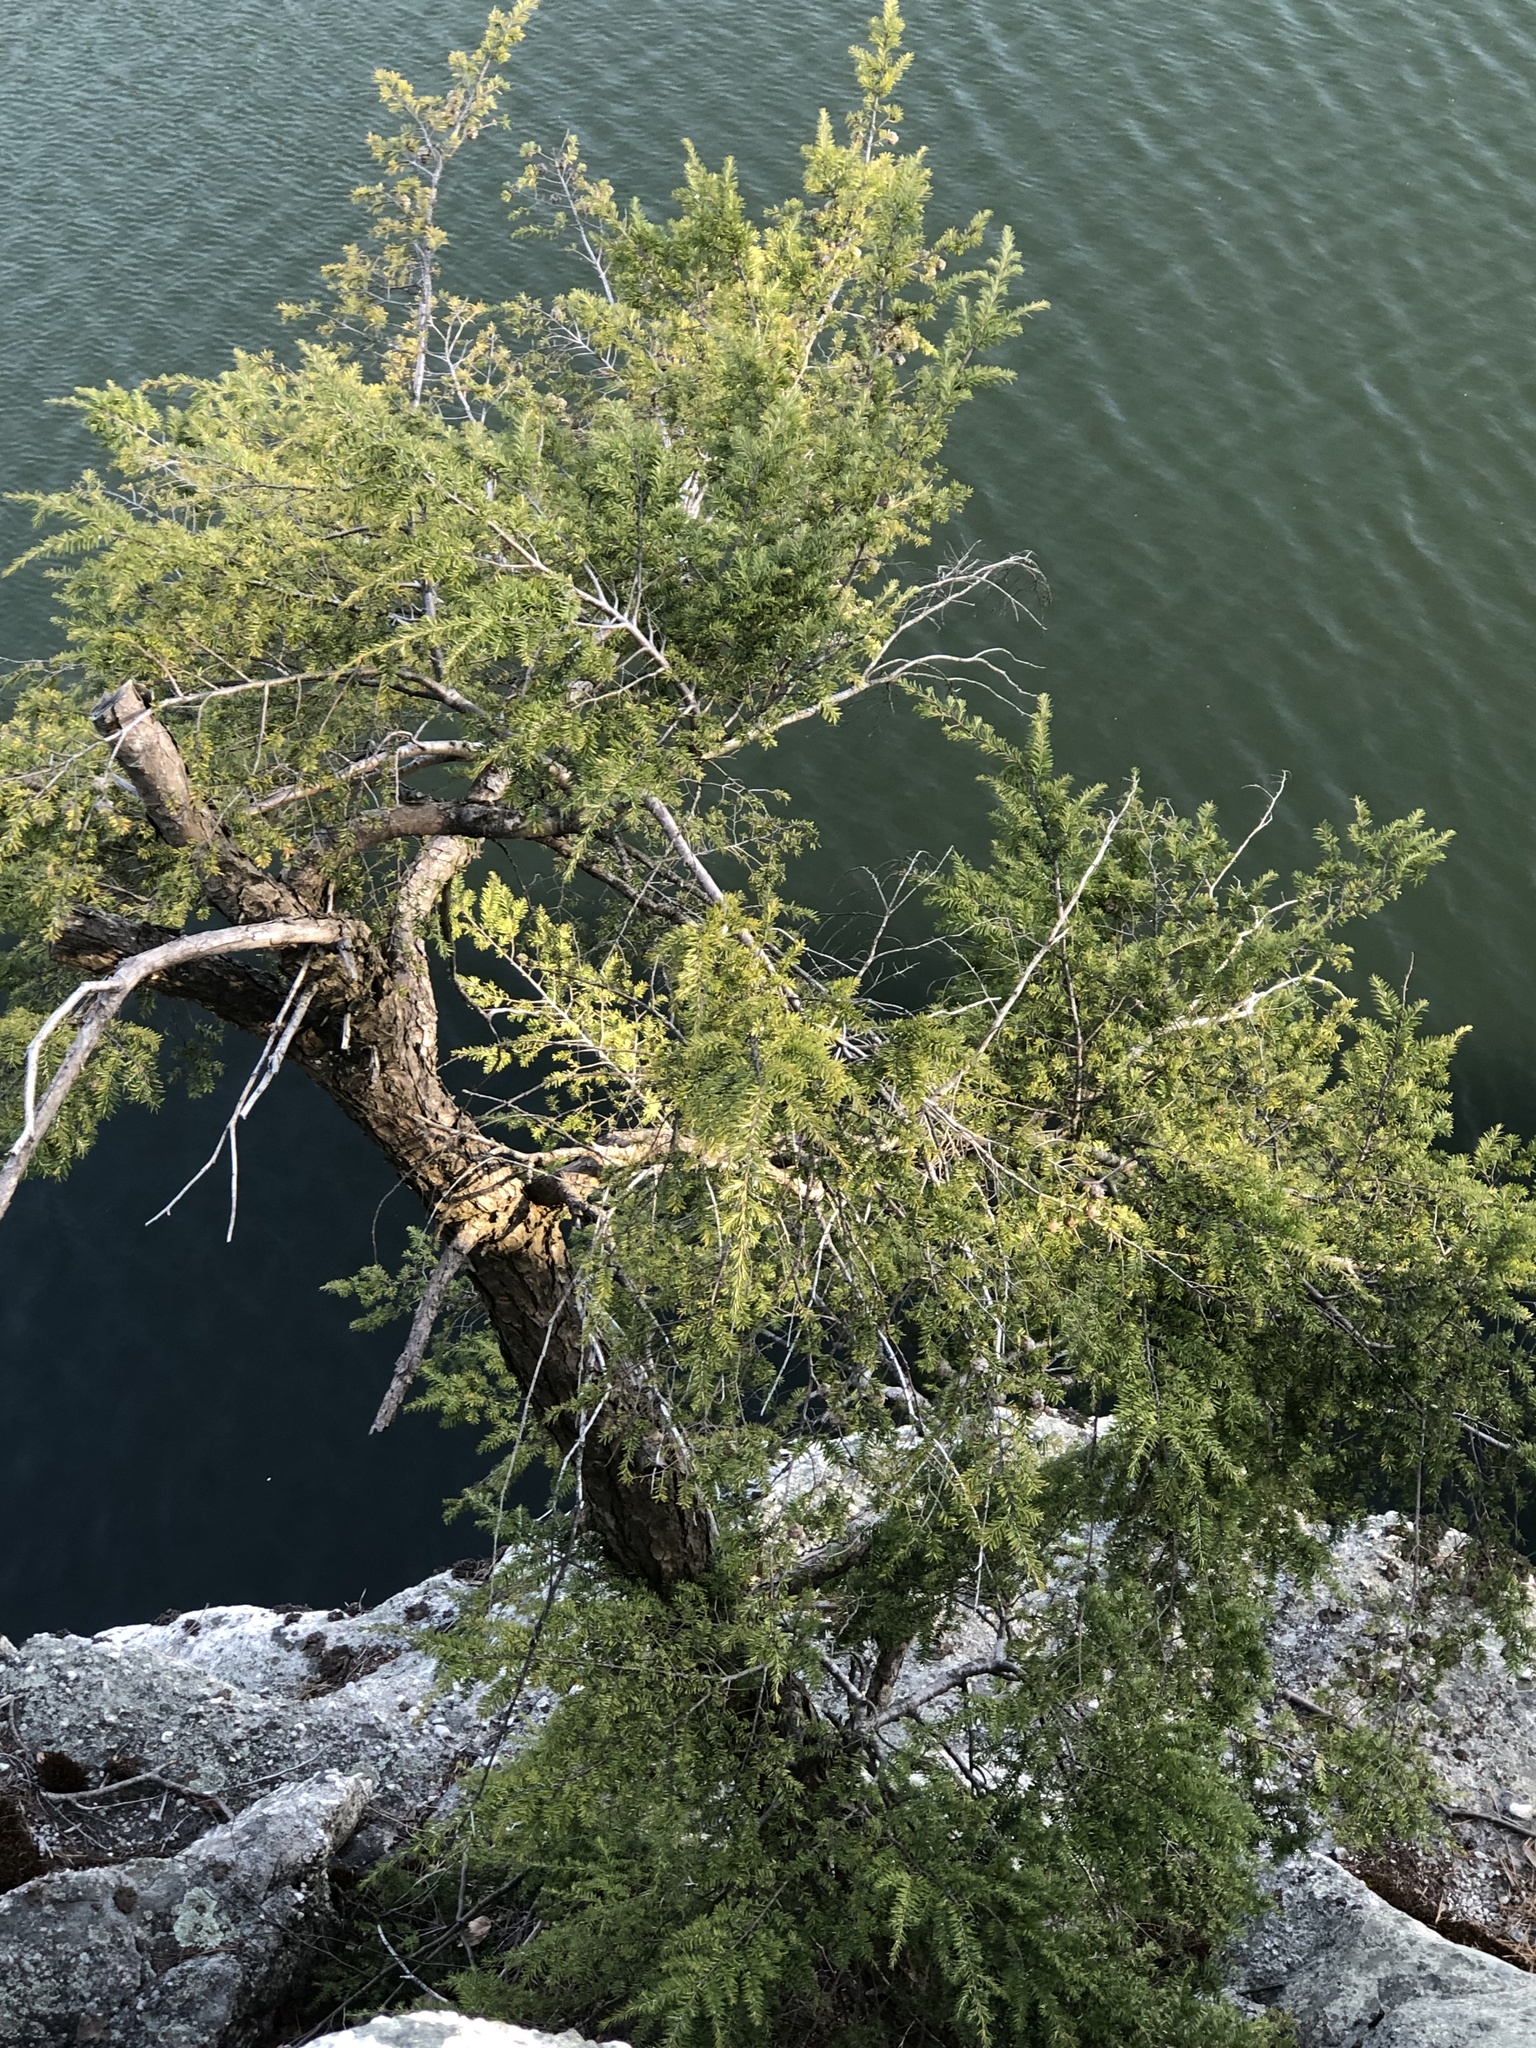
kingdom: Plantae
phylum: Tracheophyta
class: Pinopsida
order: Pinales
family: Pinaceae
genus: Tsuga
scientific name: Tsuga canadensis
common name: Eastern hemlock
